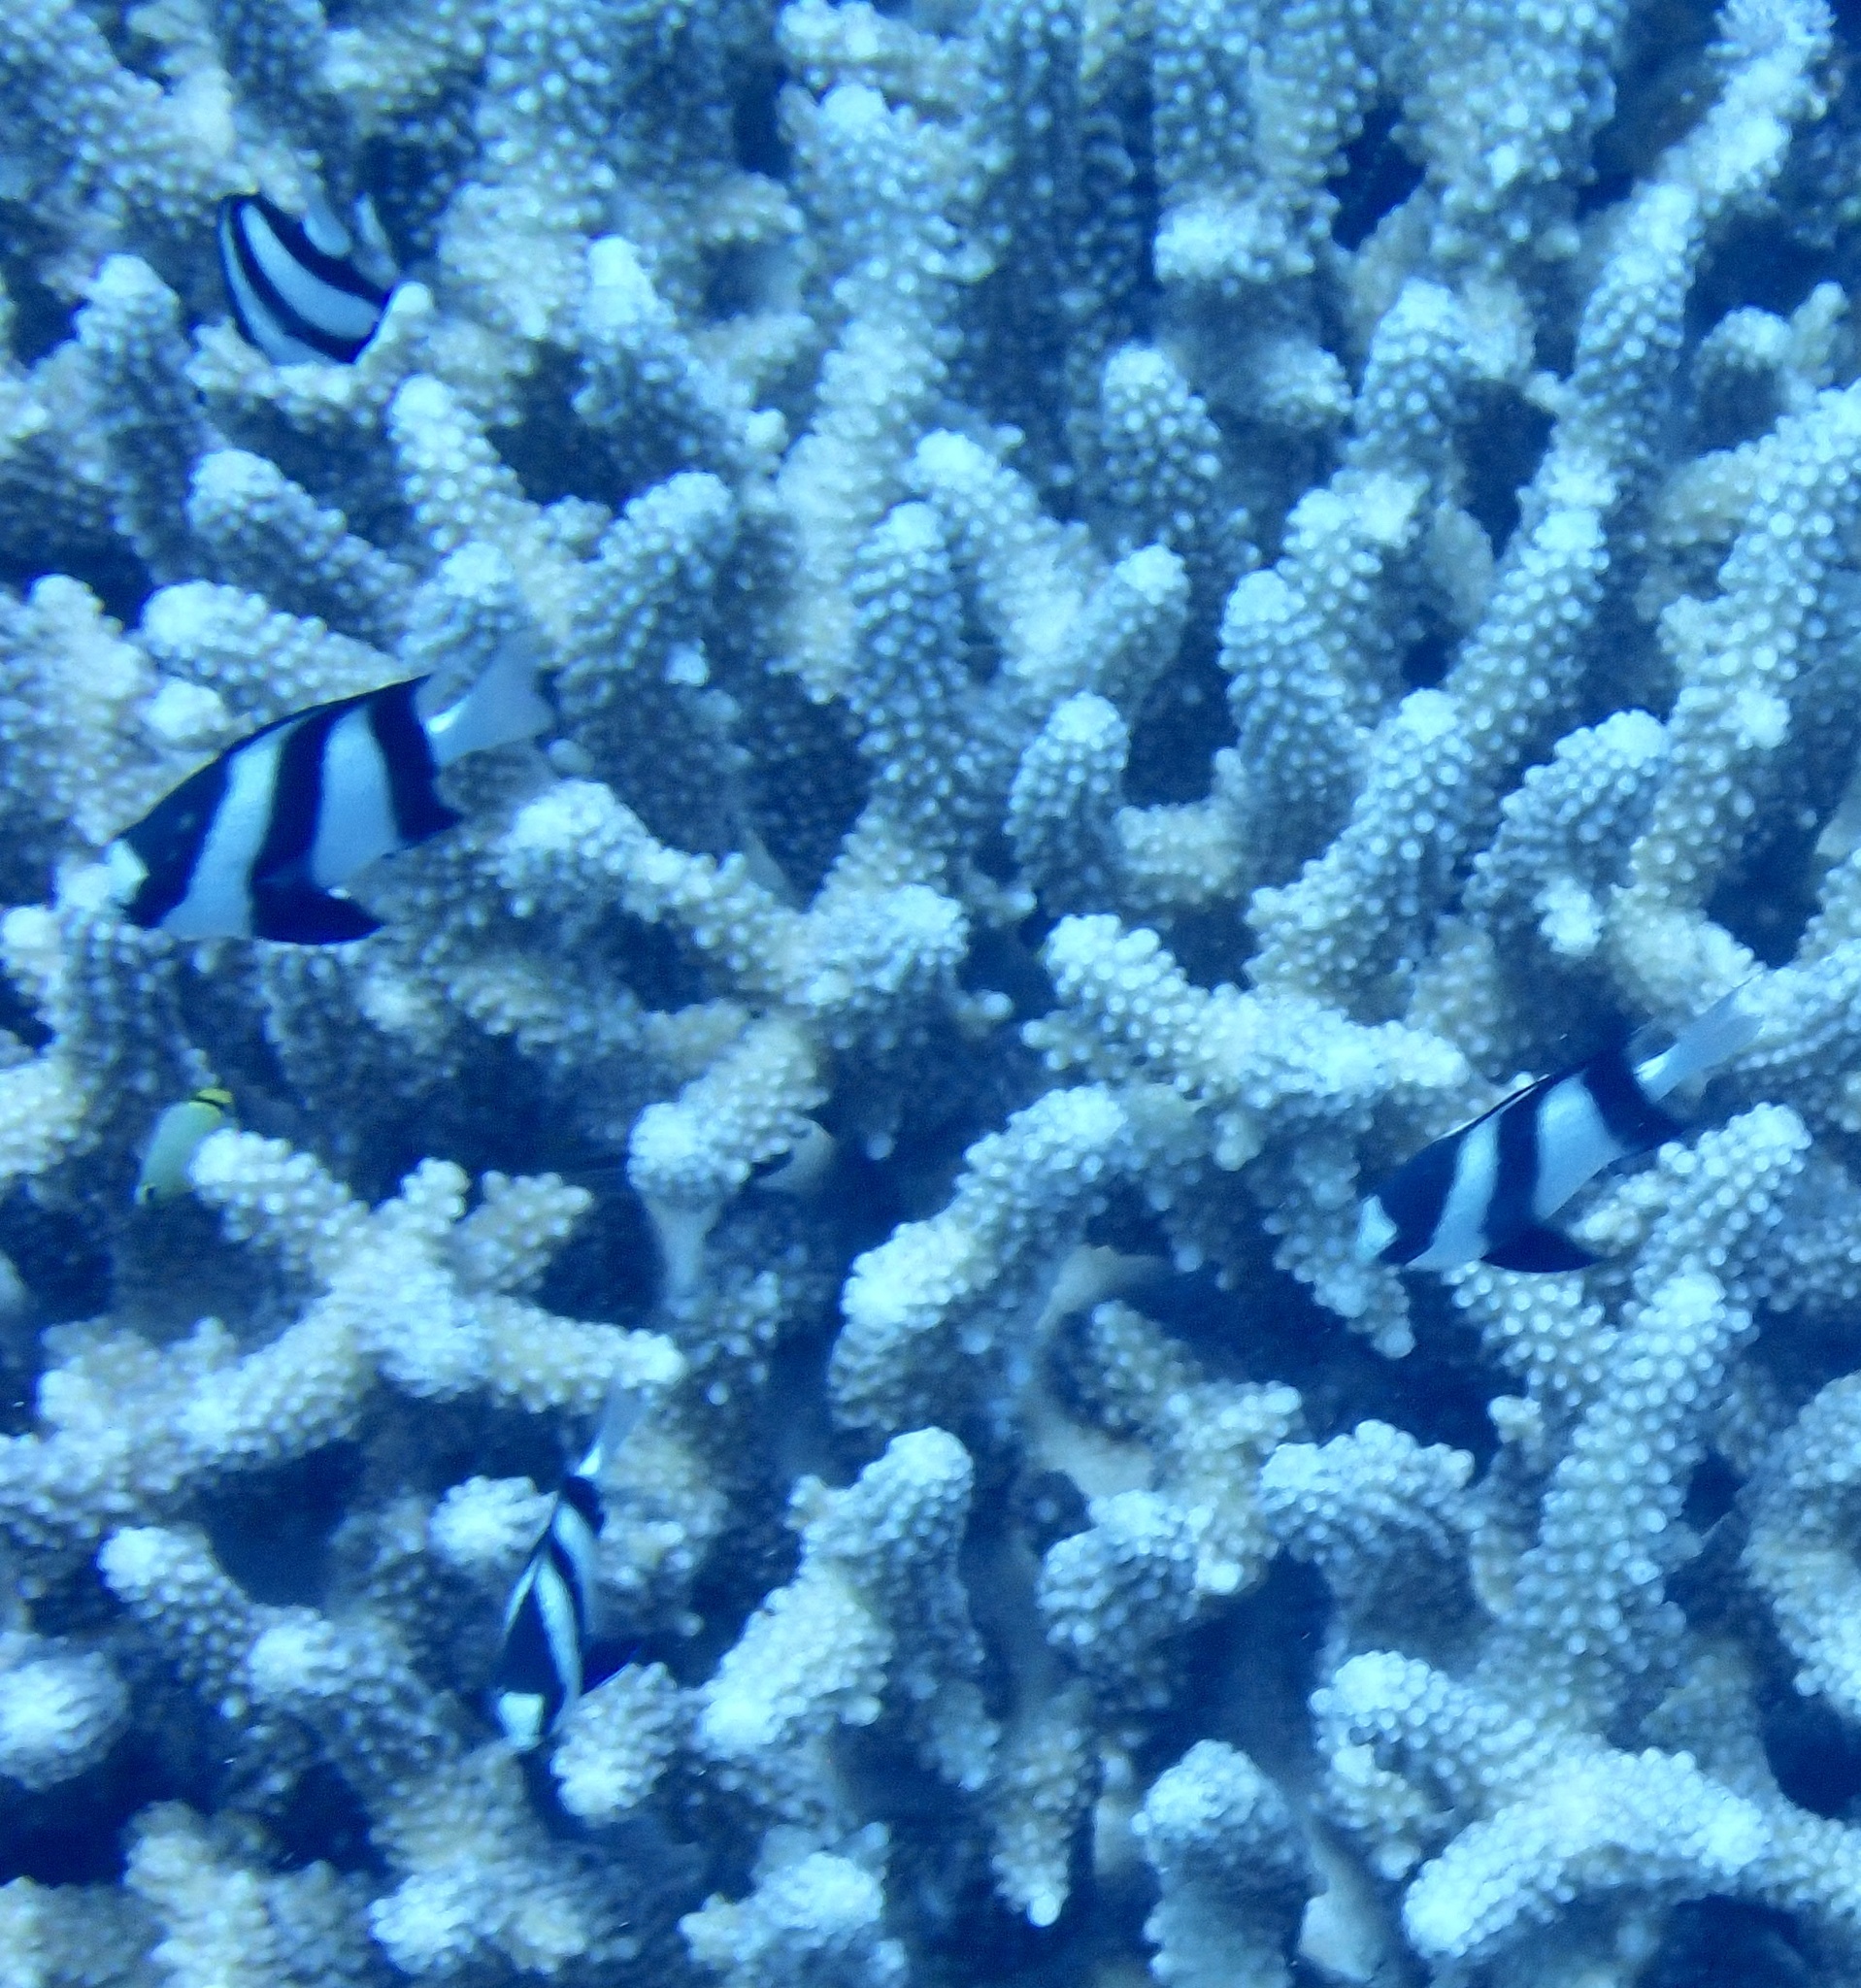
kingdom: Animalia
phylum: Chordata
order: Perciformes
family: Pomacentridae
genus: Dascyllus
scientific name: Dascyllus abudafur
